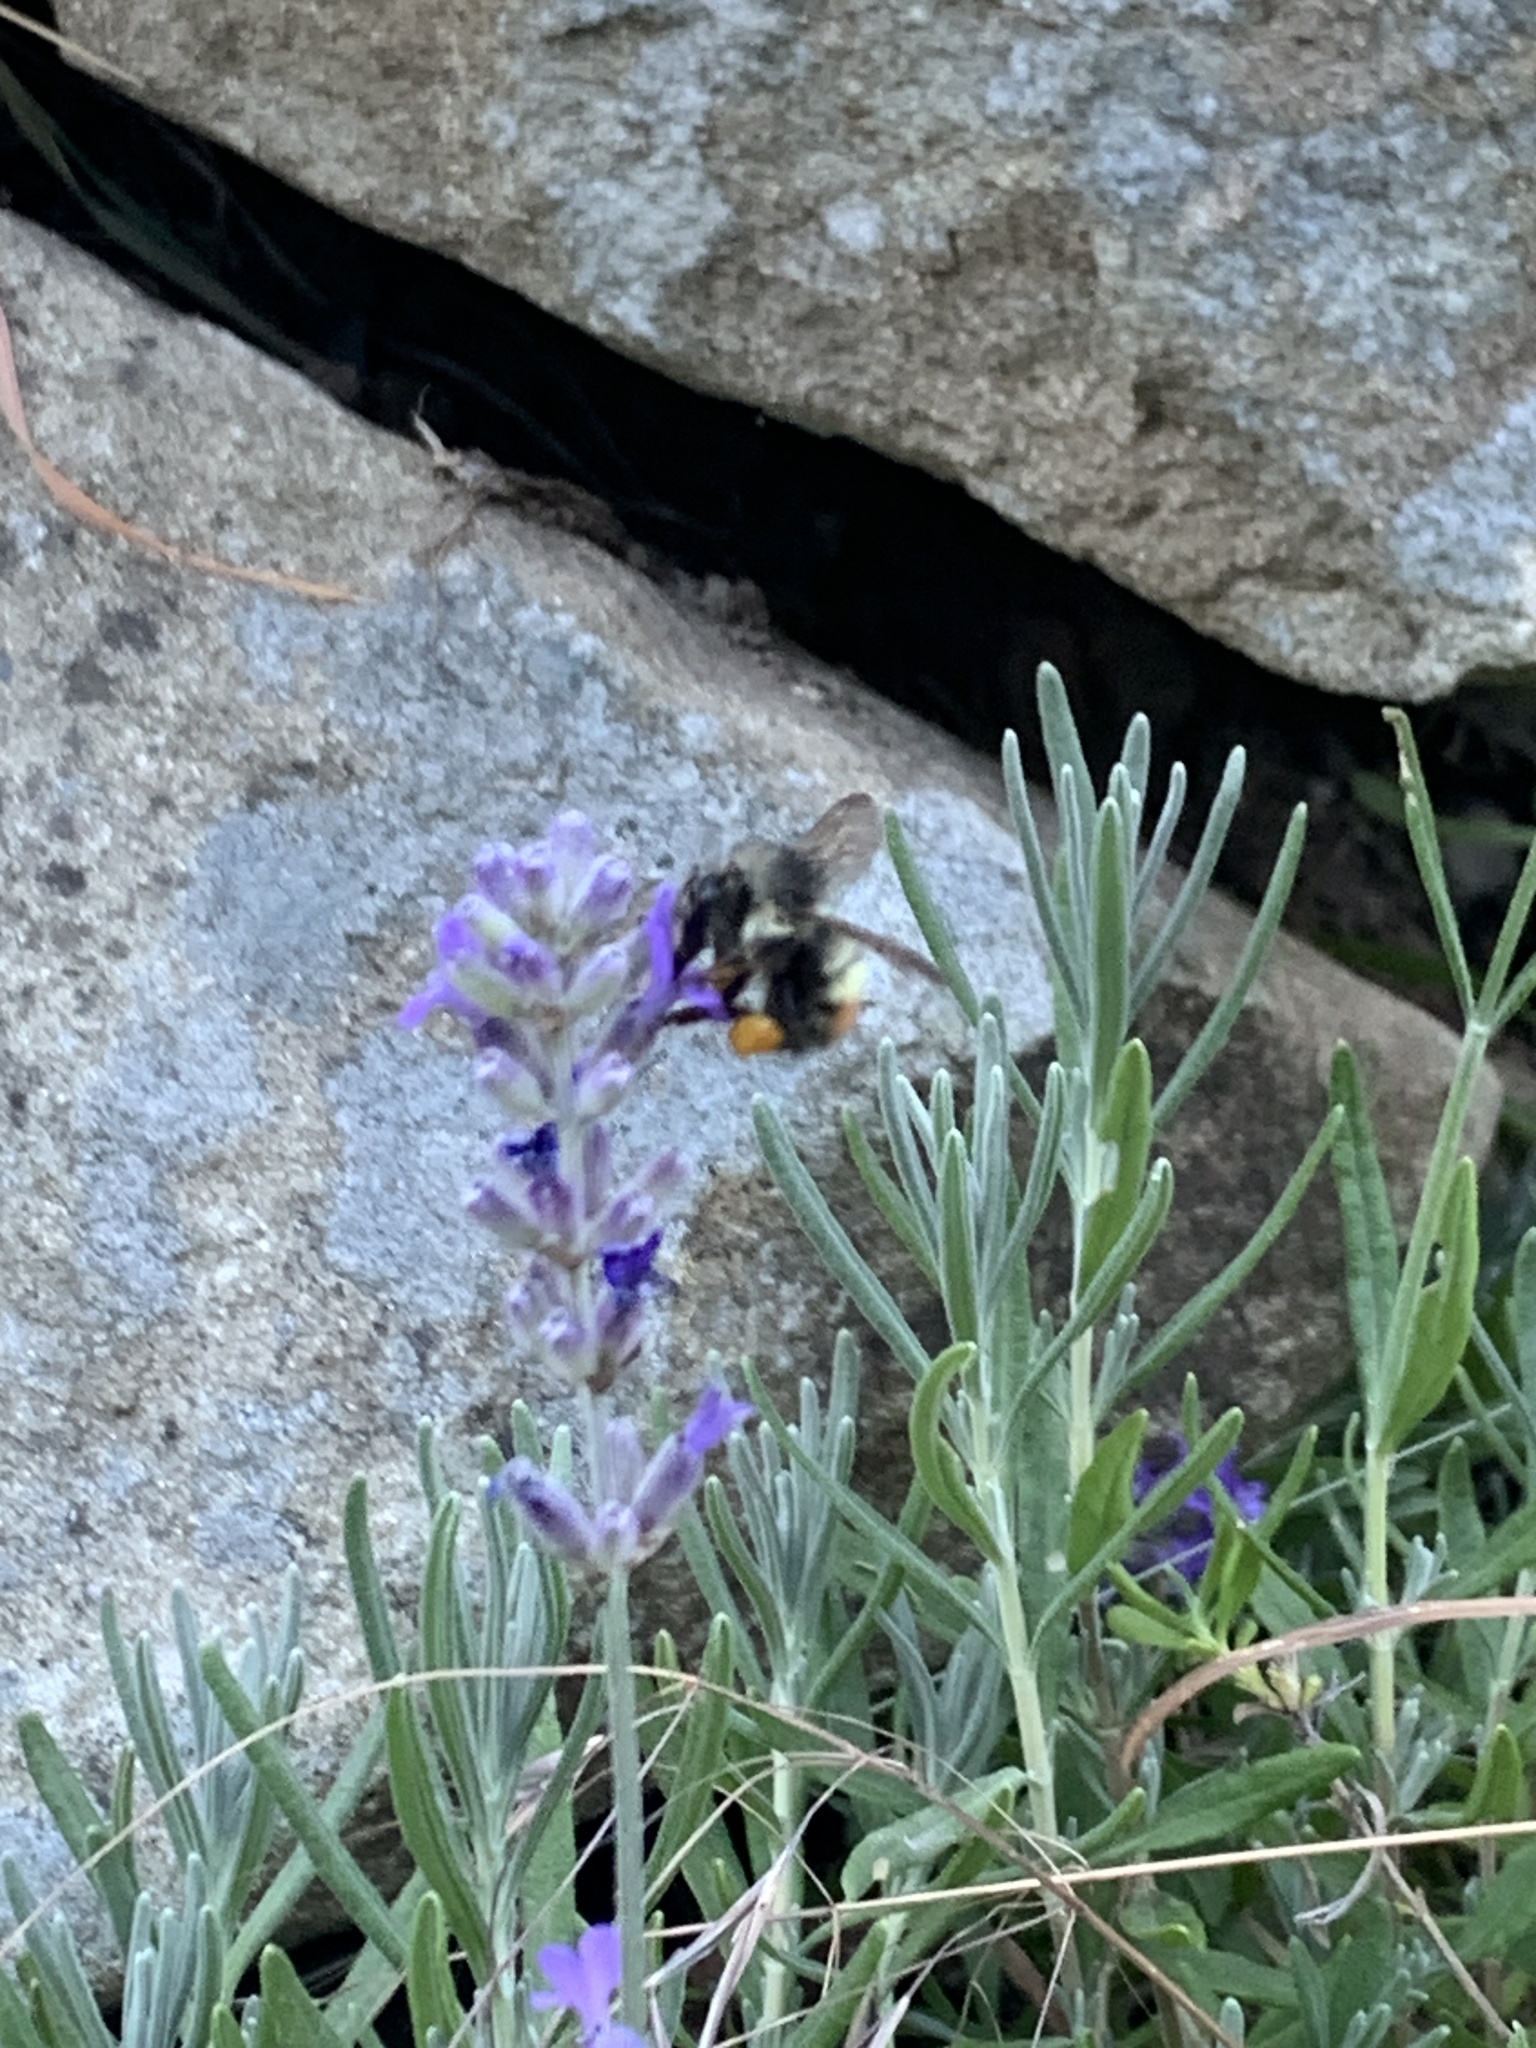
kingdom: Animalia
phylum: Arthropoda
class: Insecta
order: Hymenoptera
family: Apidae
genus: Bombus
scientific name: Bombus flavifrons
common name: Yellow head bumble bee
